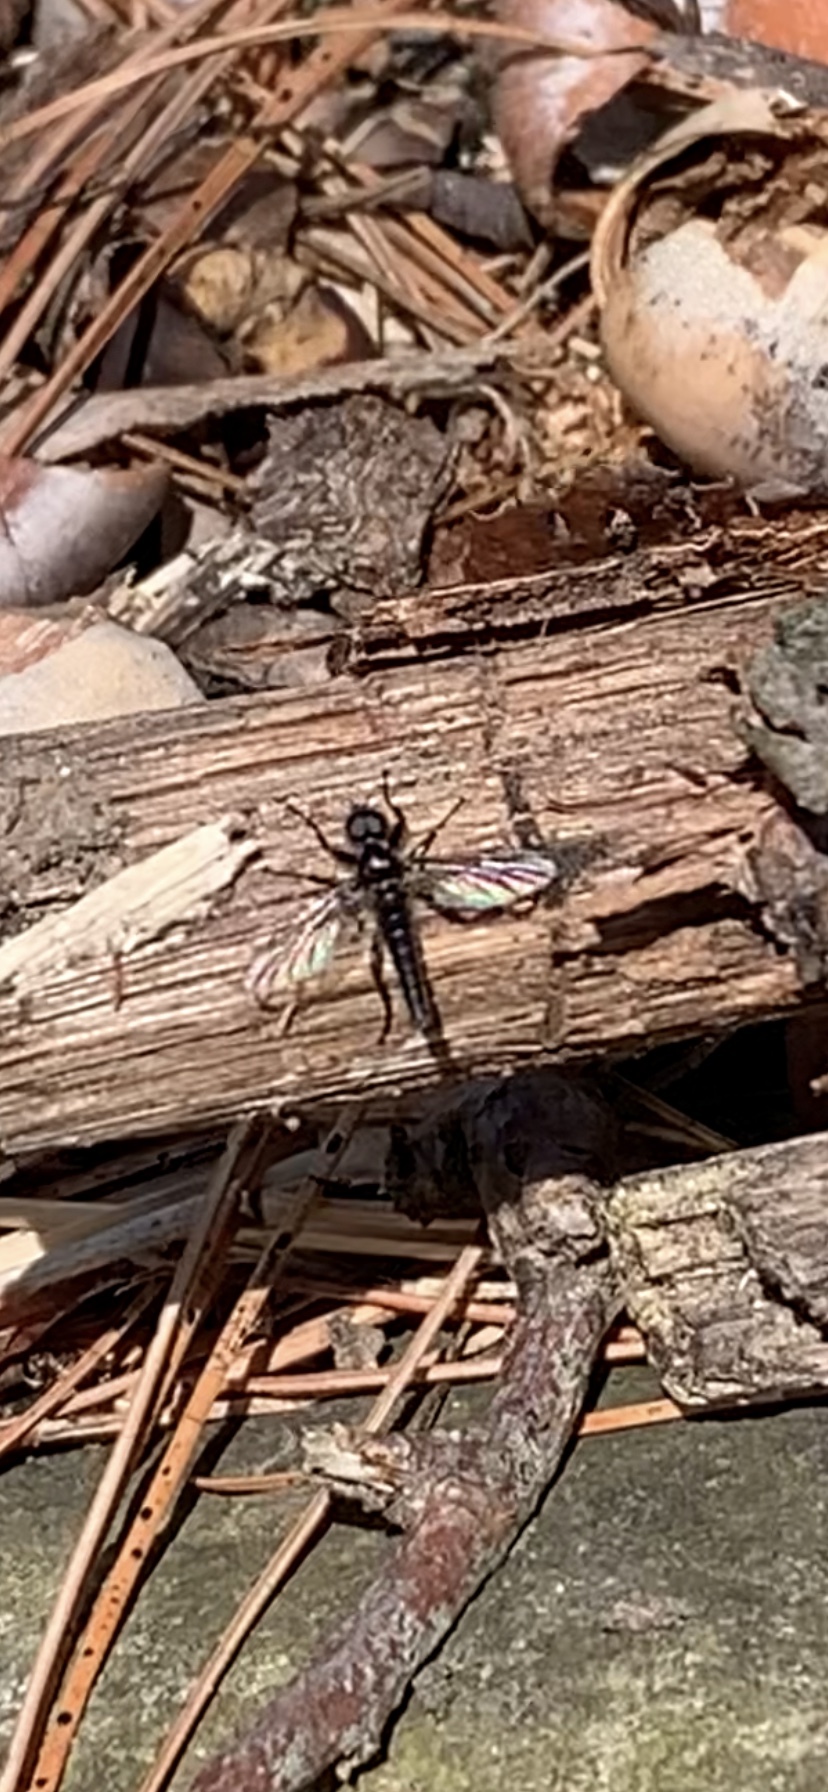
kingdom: Animalia
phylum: Arthropoda
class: Insecta
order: Diptera
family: Bibionidae
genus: Bibio
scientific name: Bibio lanigerus
